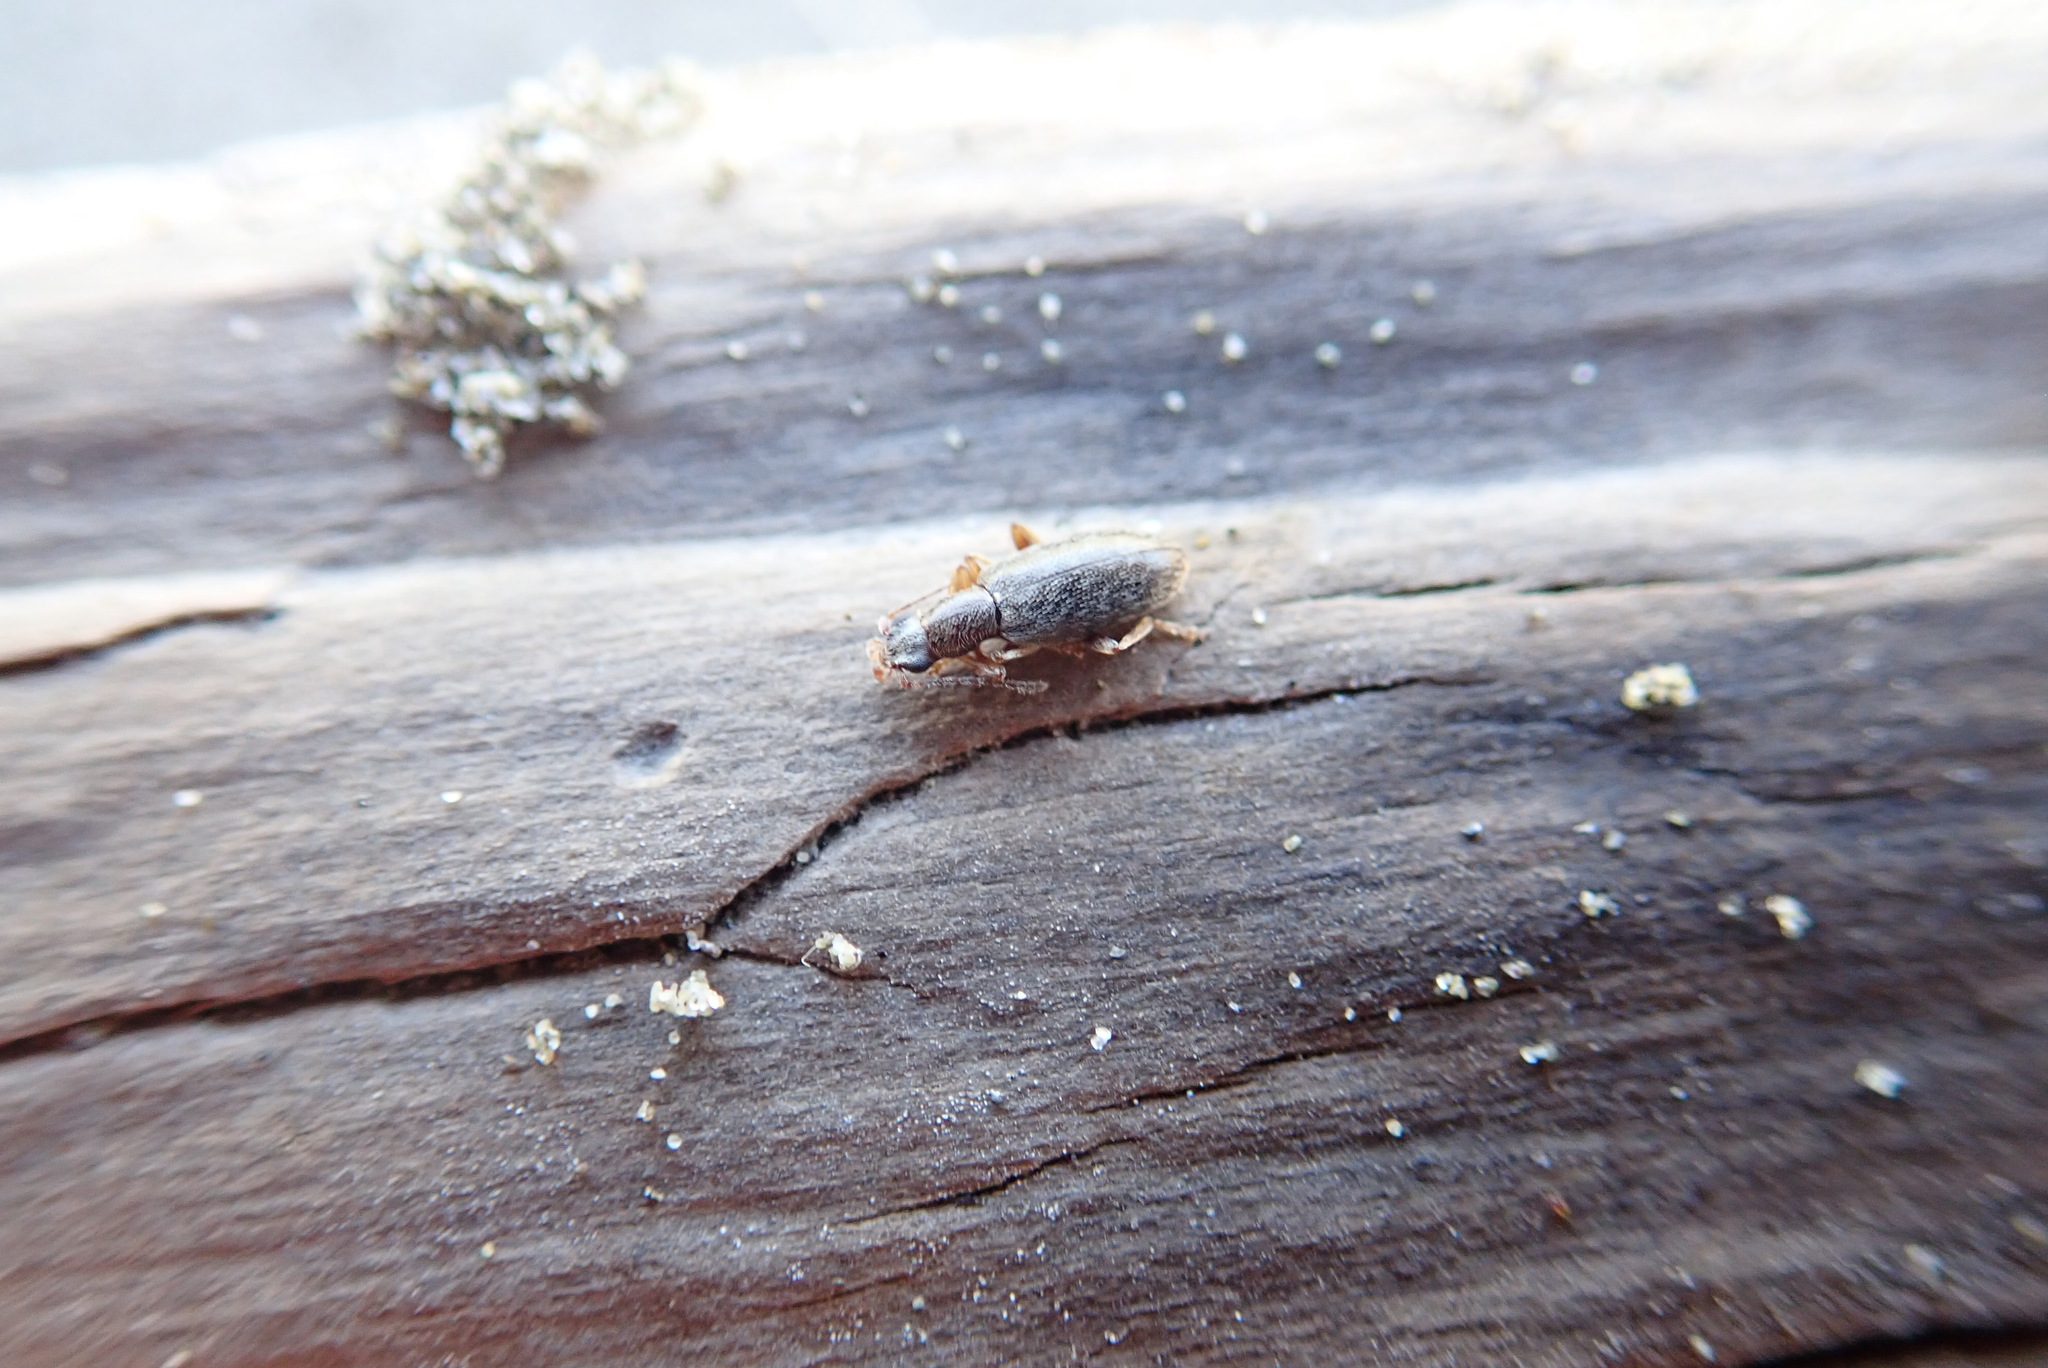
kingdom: Animalia
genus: Lagrioda
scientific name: Lagrioda brounii
